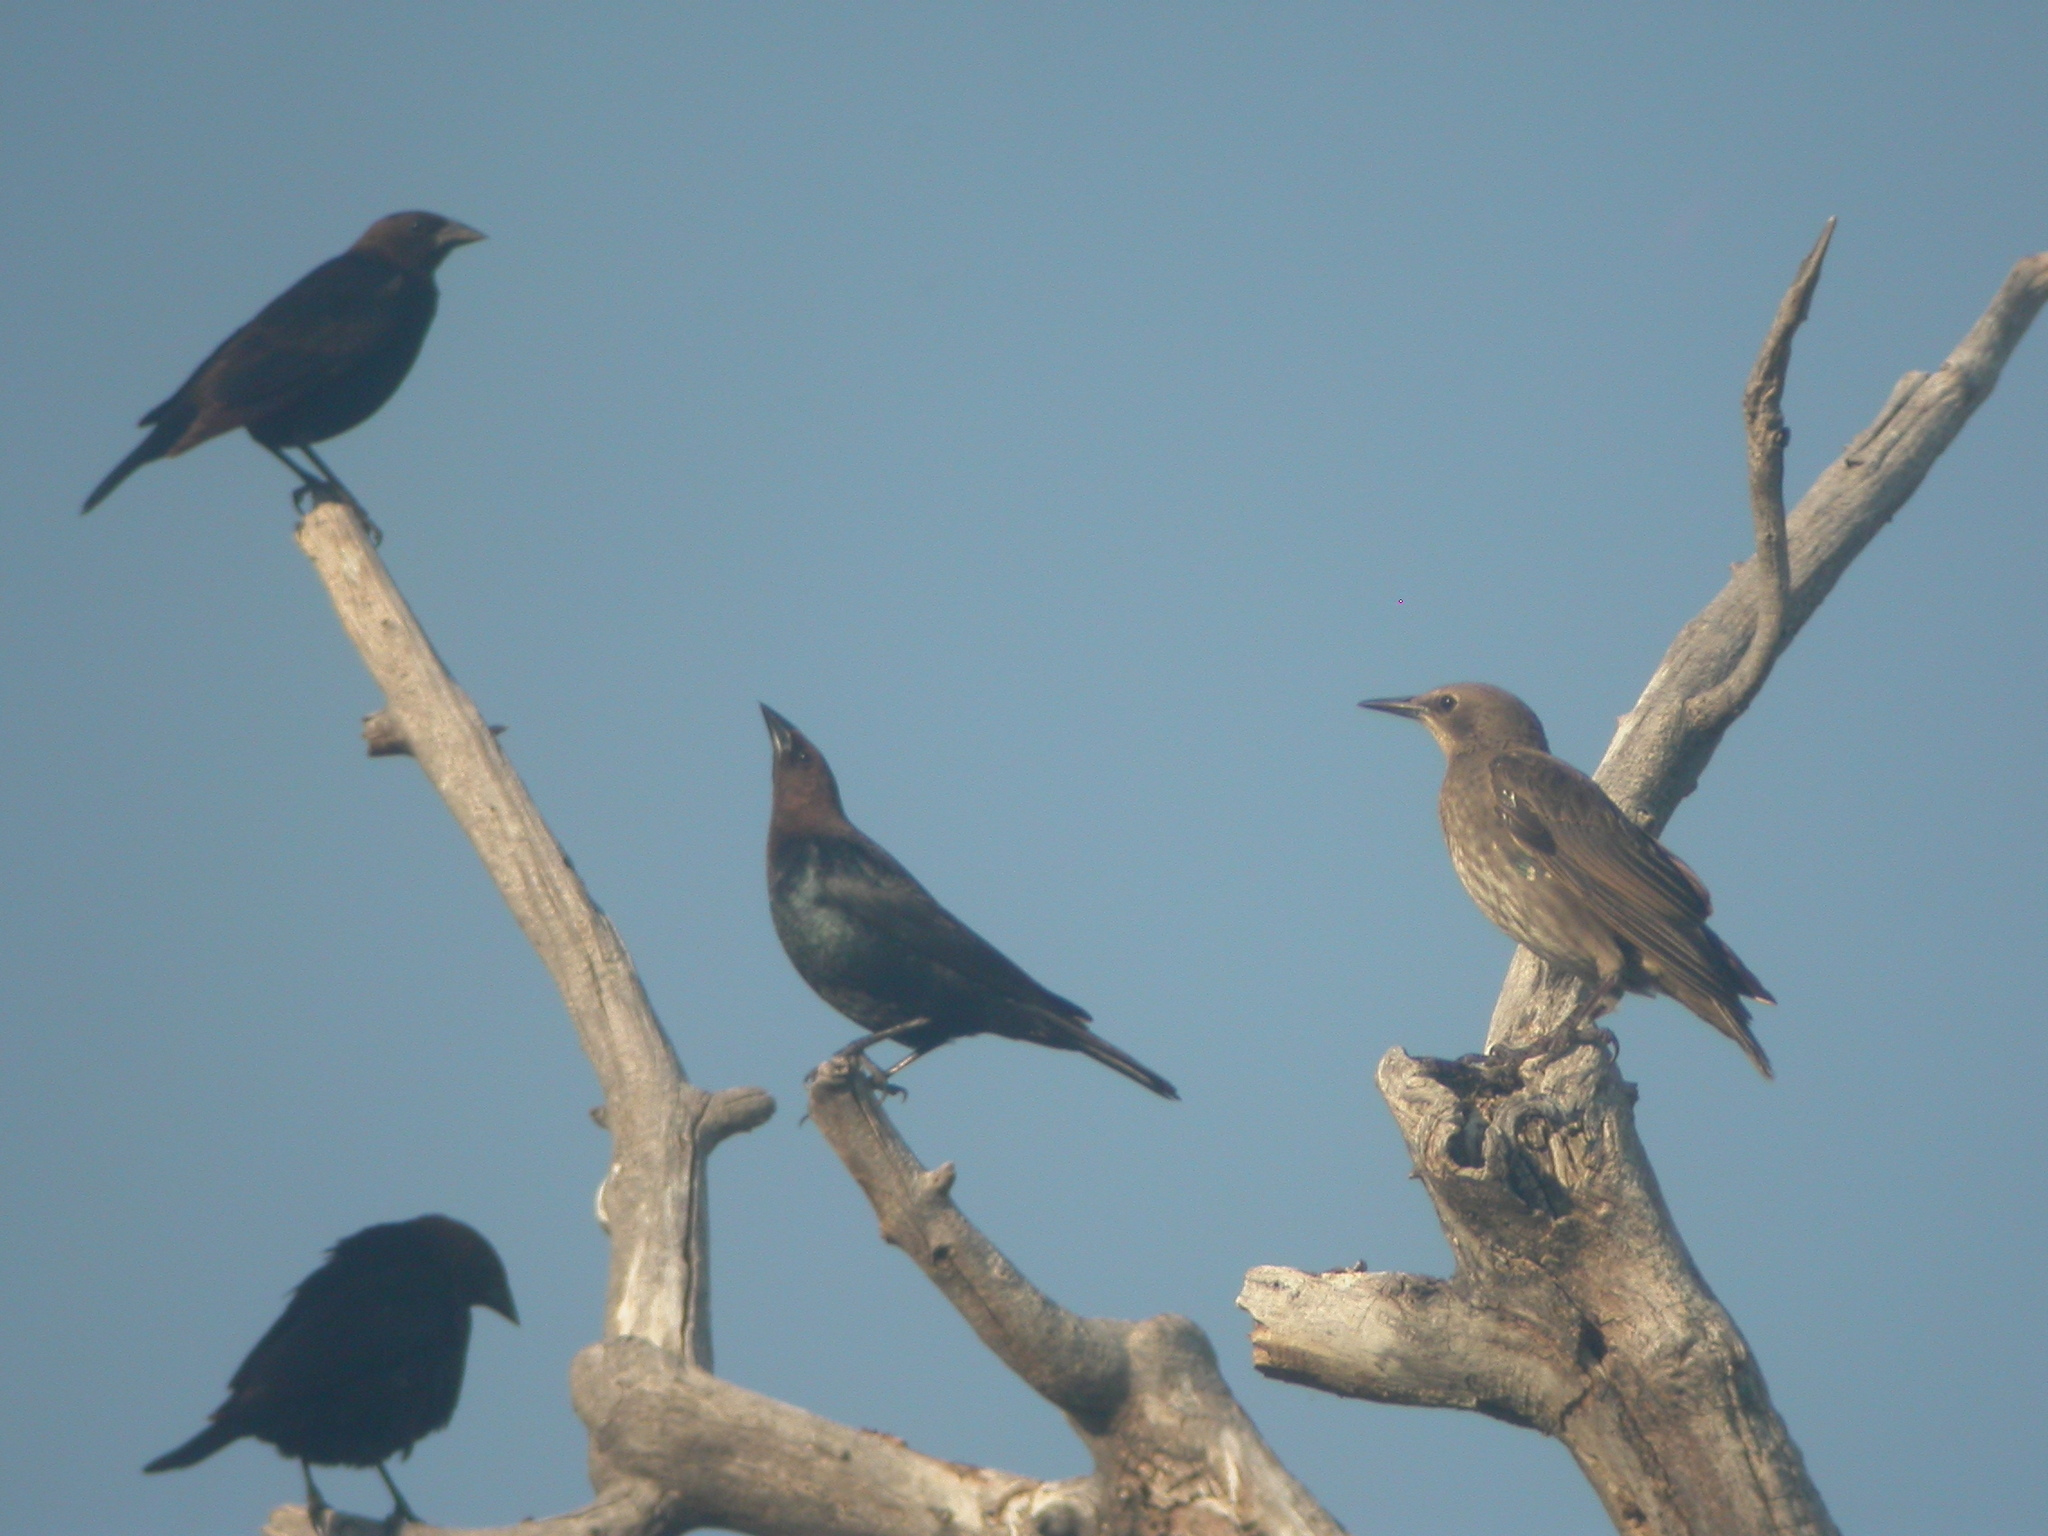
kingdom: Animalia
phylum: Chordata
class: Aves
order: Passeriformes
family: Icteridae
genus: Molothrus
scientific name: Molothrus ater
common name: Brown-headed cowbird
